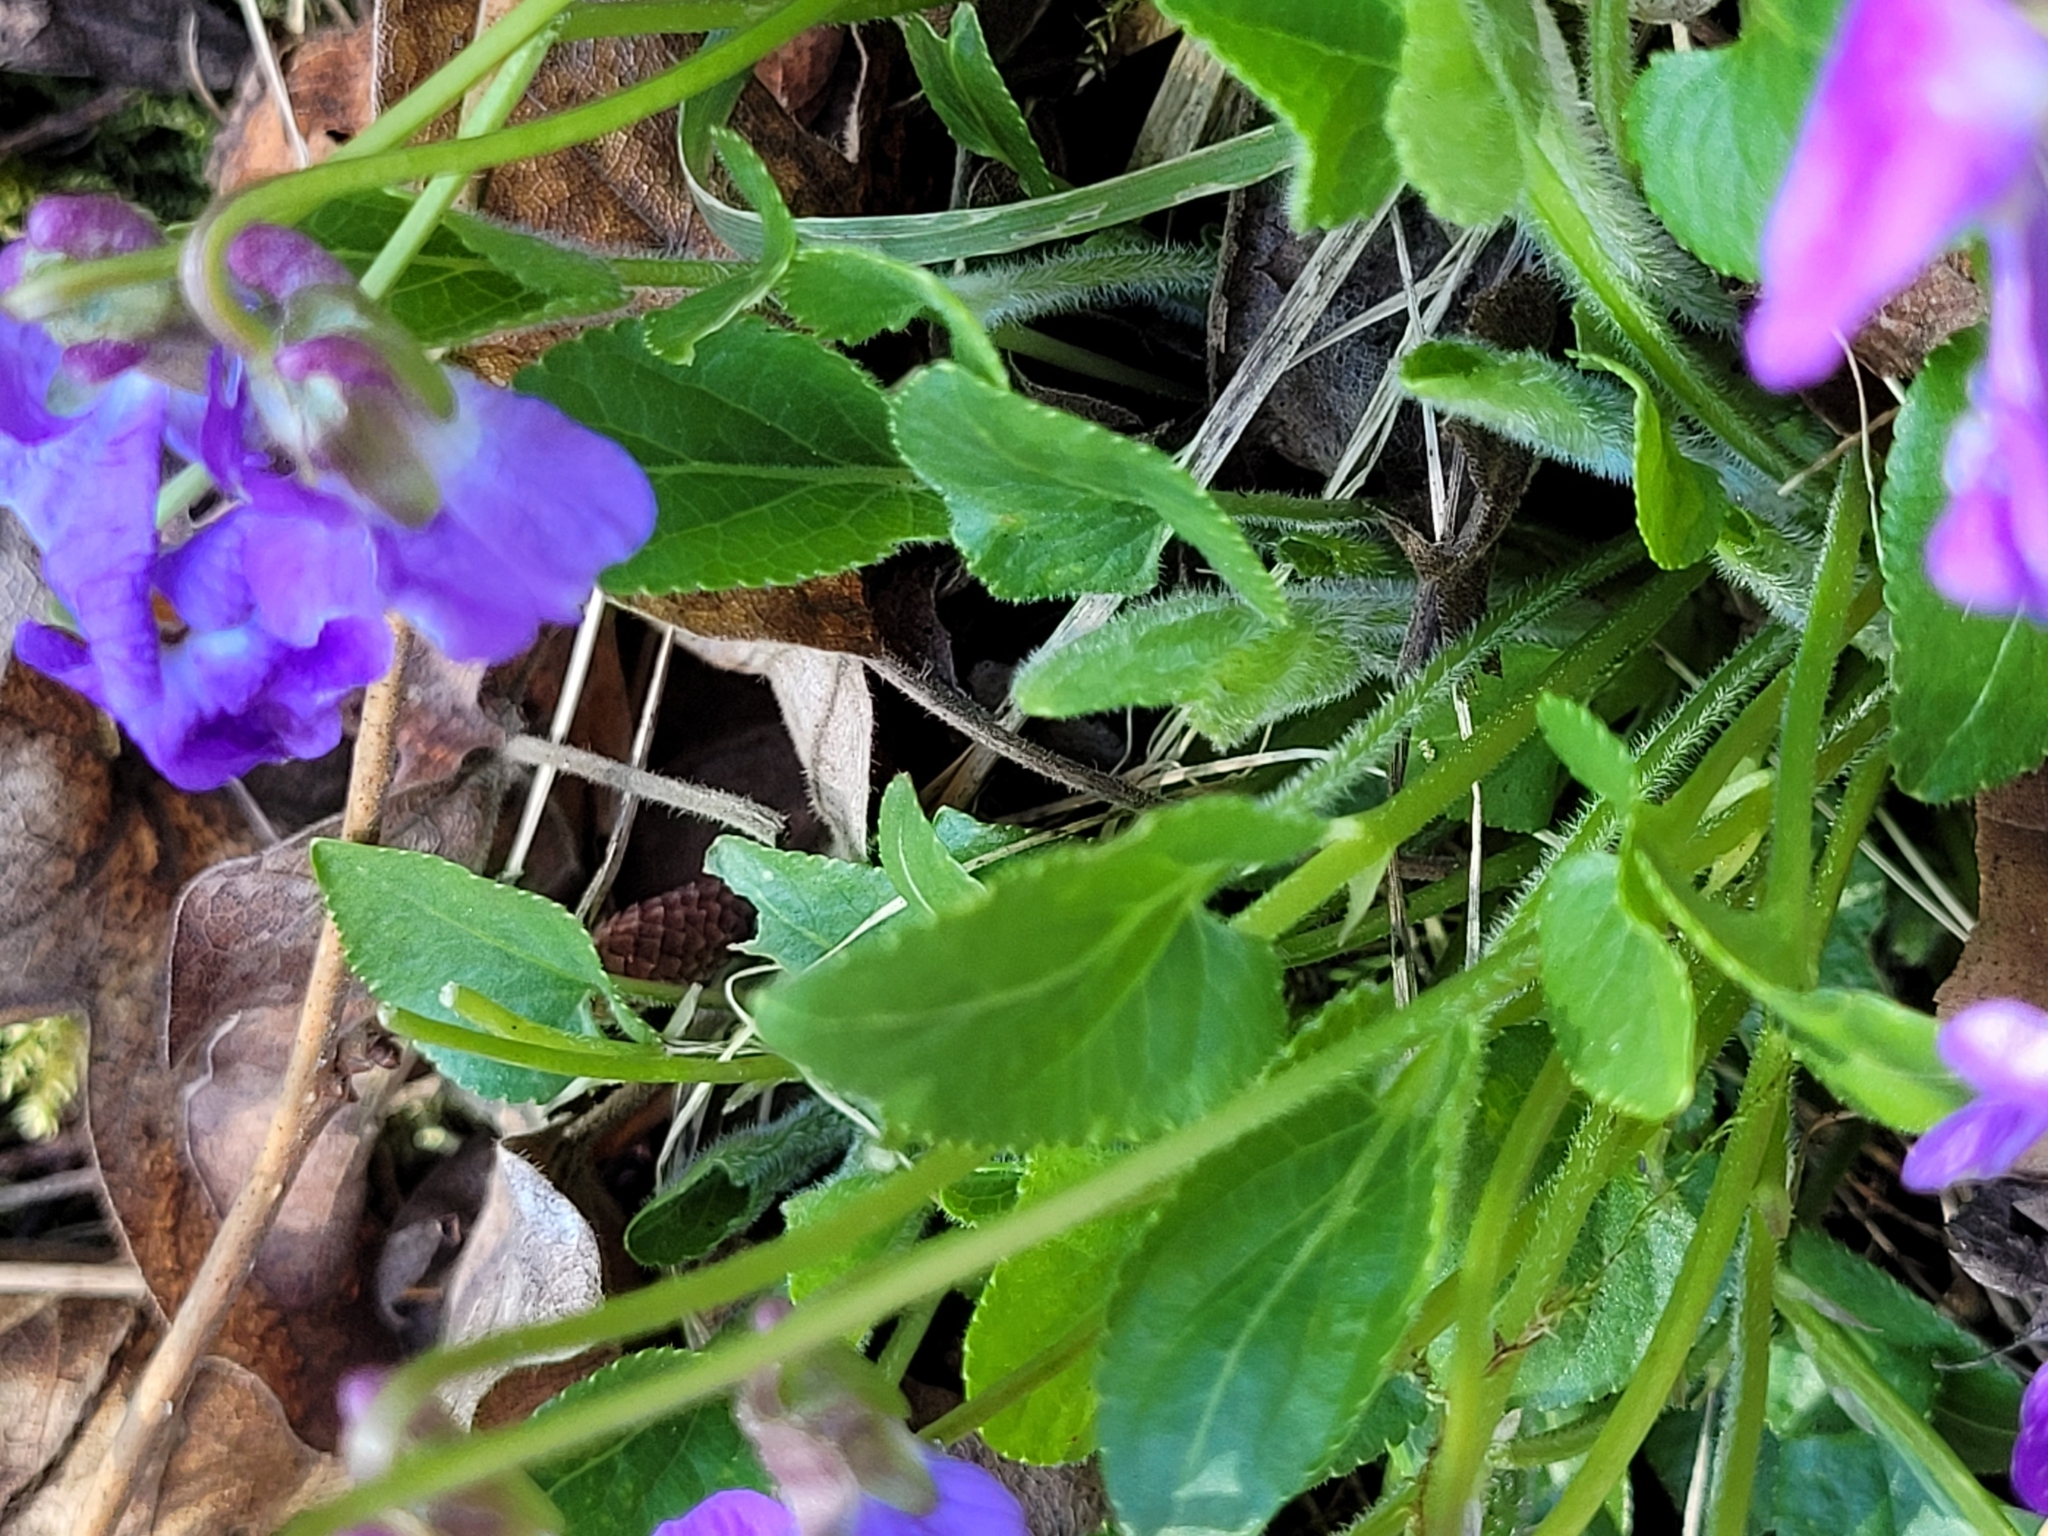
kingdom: Plantae
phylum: Tracheophyta
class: Magnoliopsida
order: Malpighiales
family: Violaceae
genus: Viola
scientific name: Viola hirta
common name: Hairy violet
